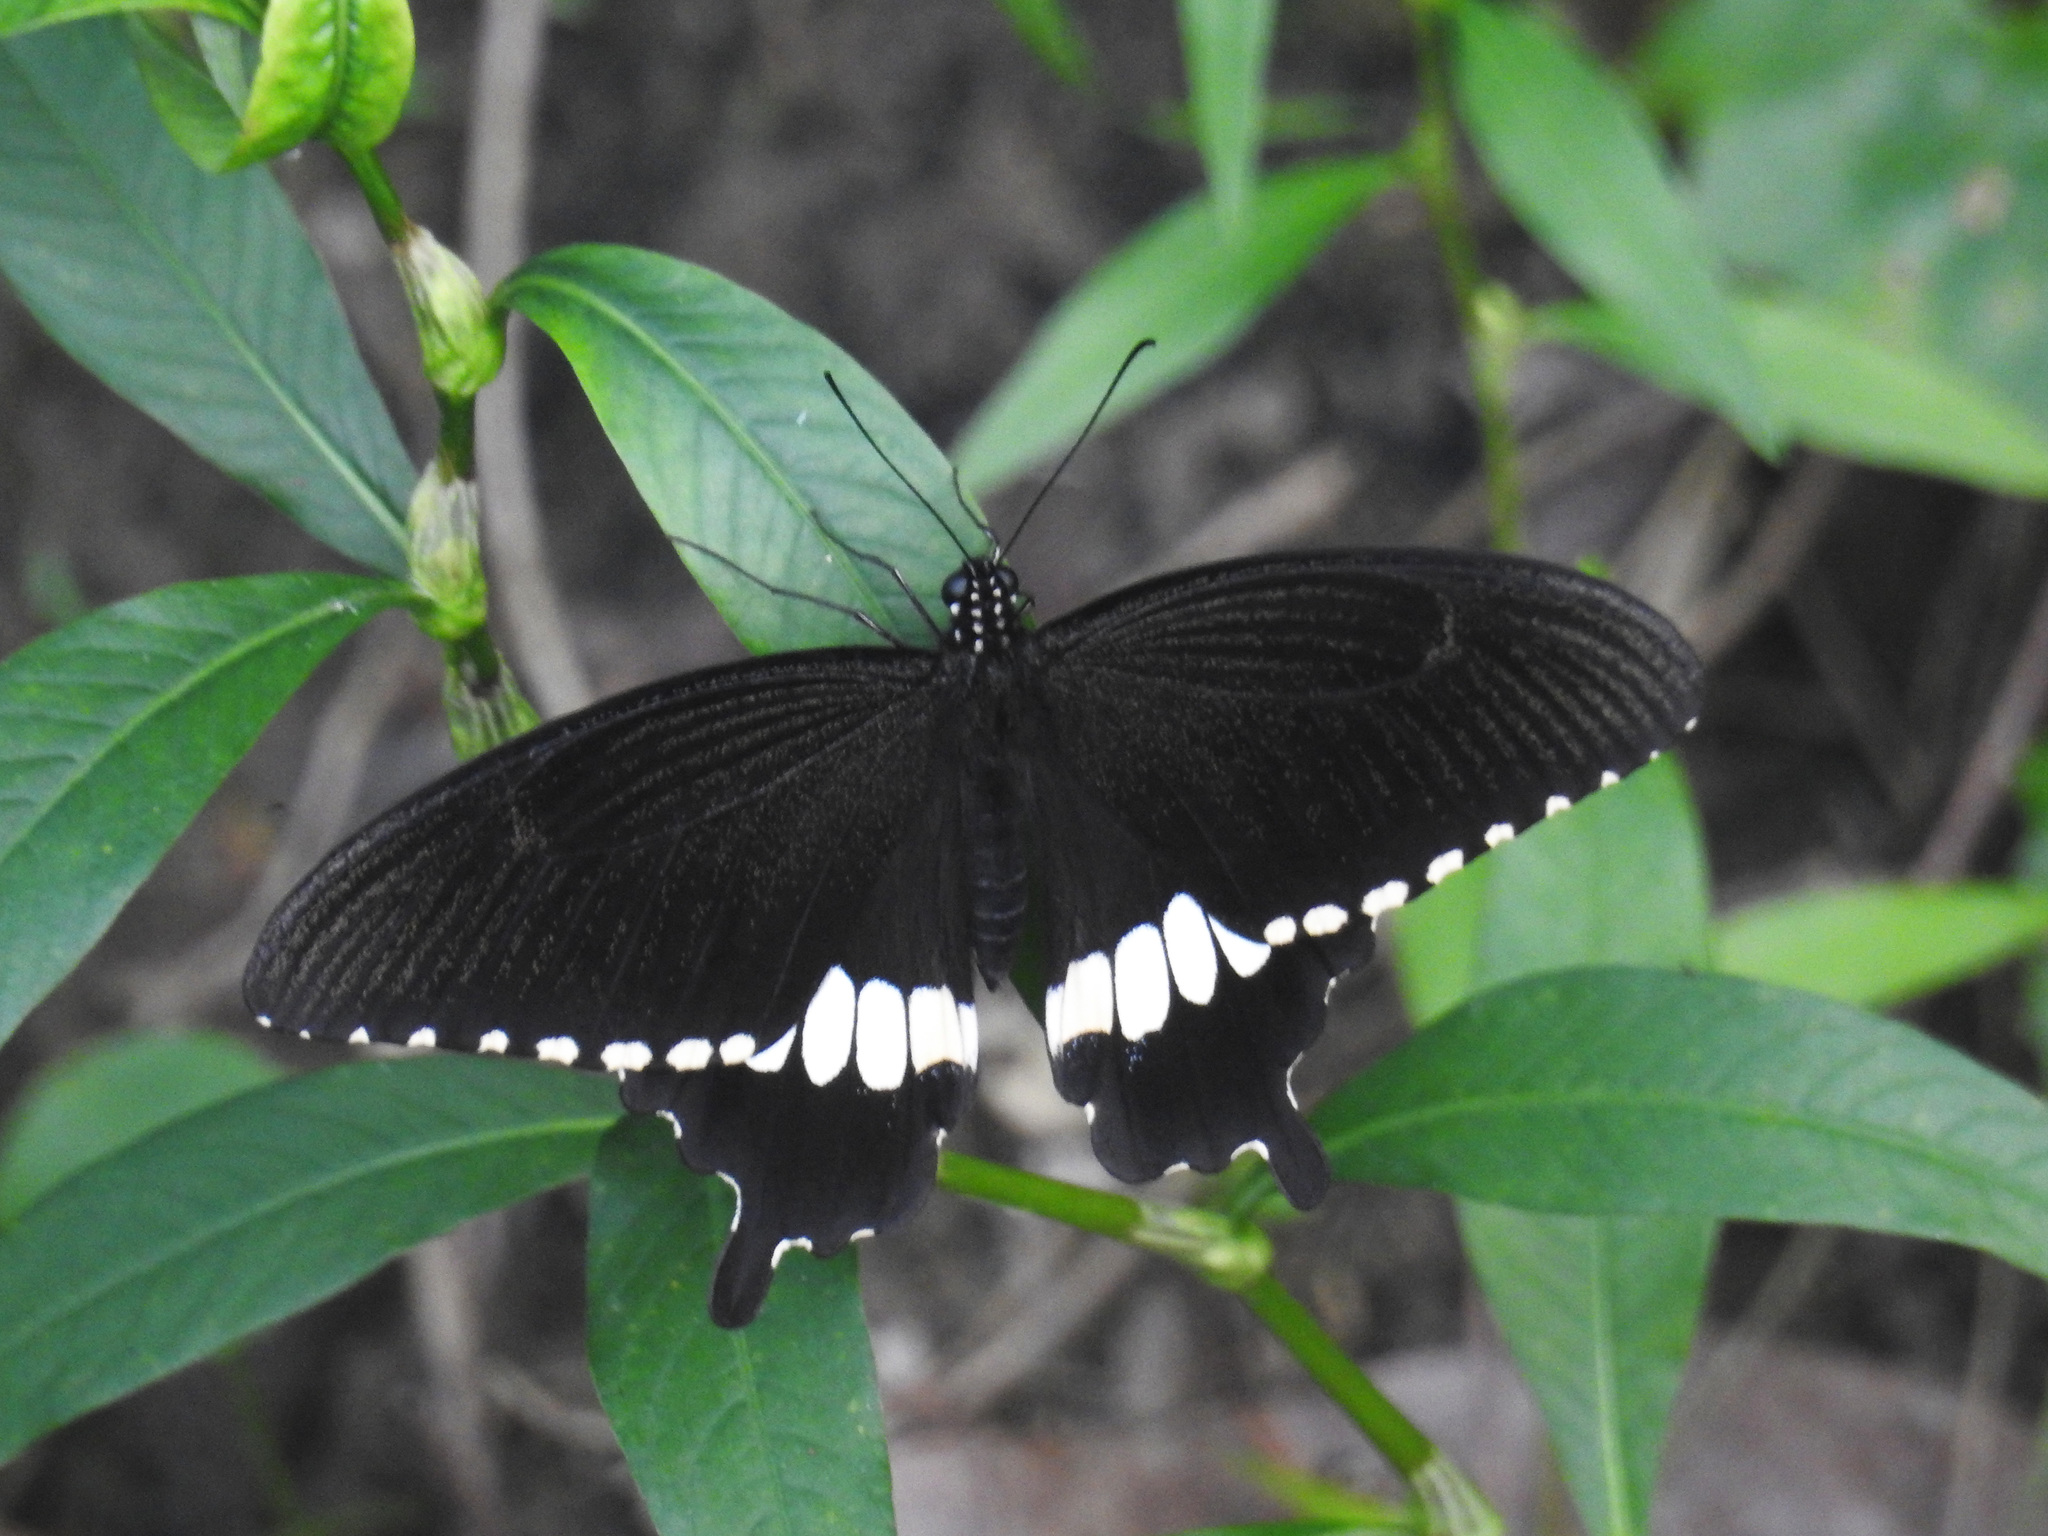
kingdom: Animalia
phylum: Arthropoda
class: Insecta
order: Lepidoptera
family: Papilionidae
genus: Papilio
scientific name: Papilio polytes
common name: Common mormon
